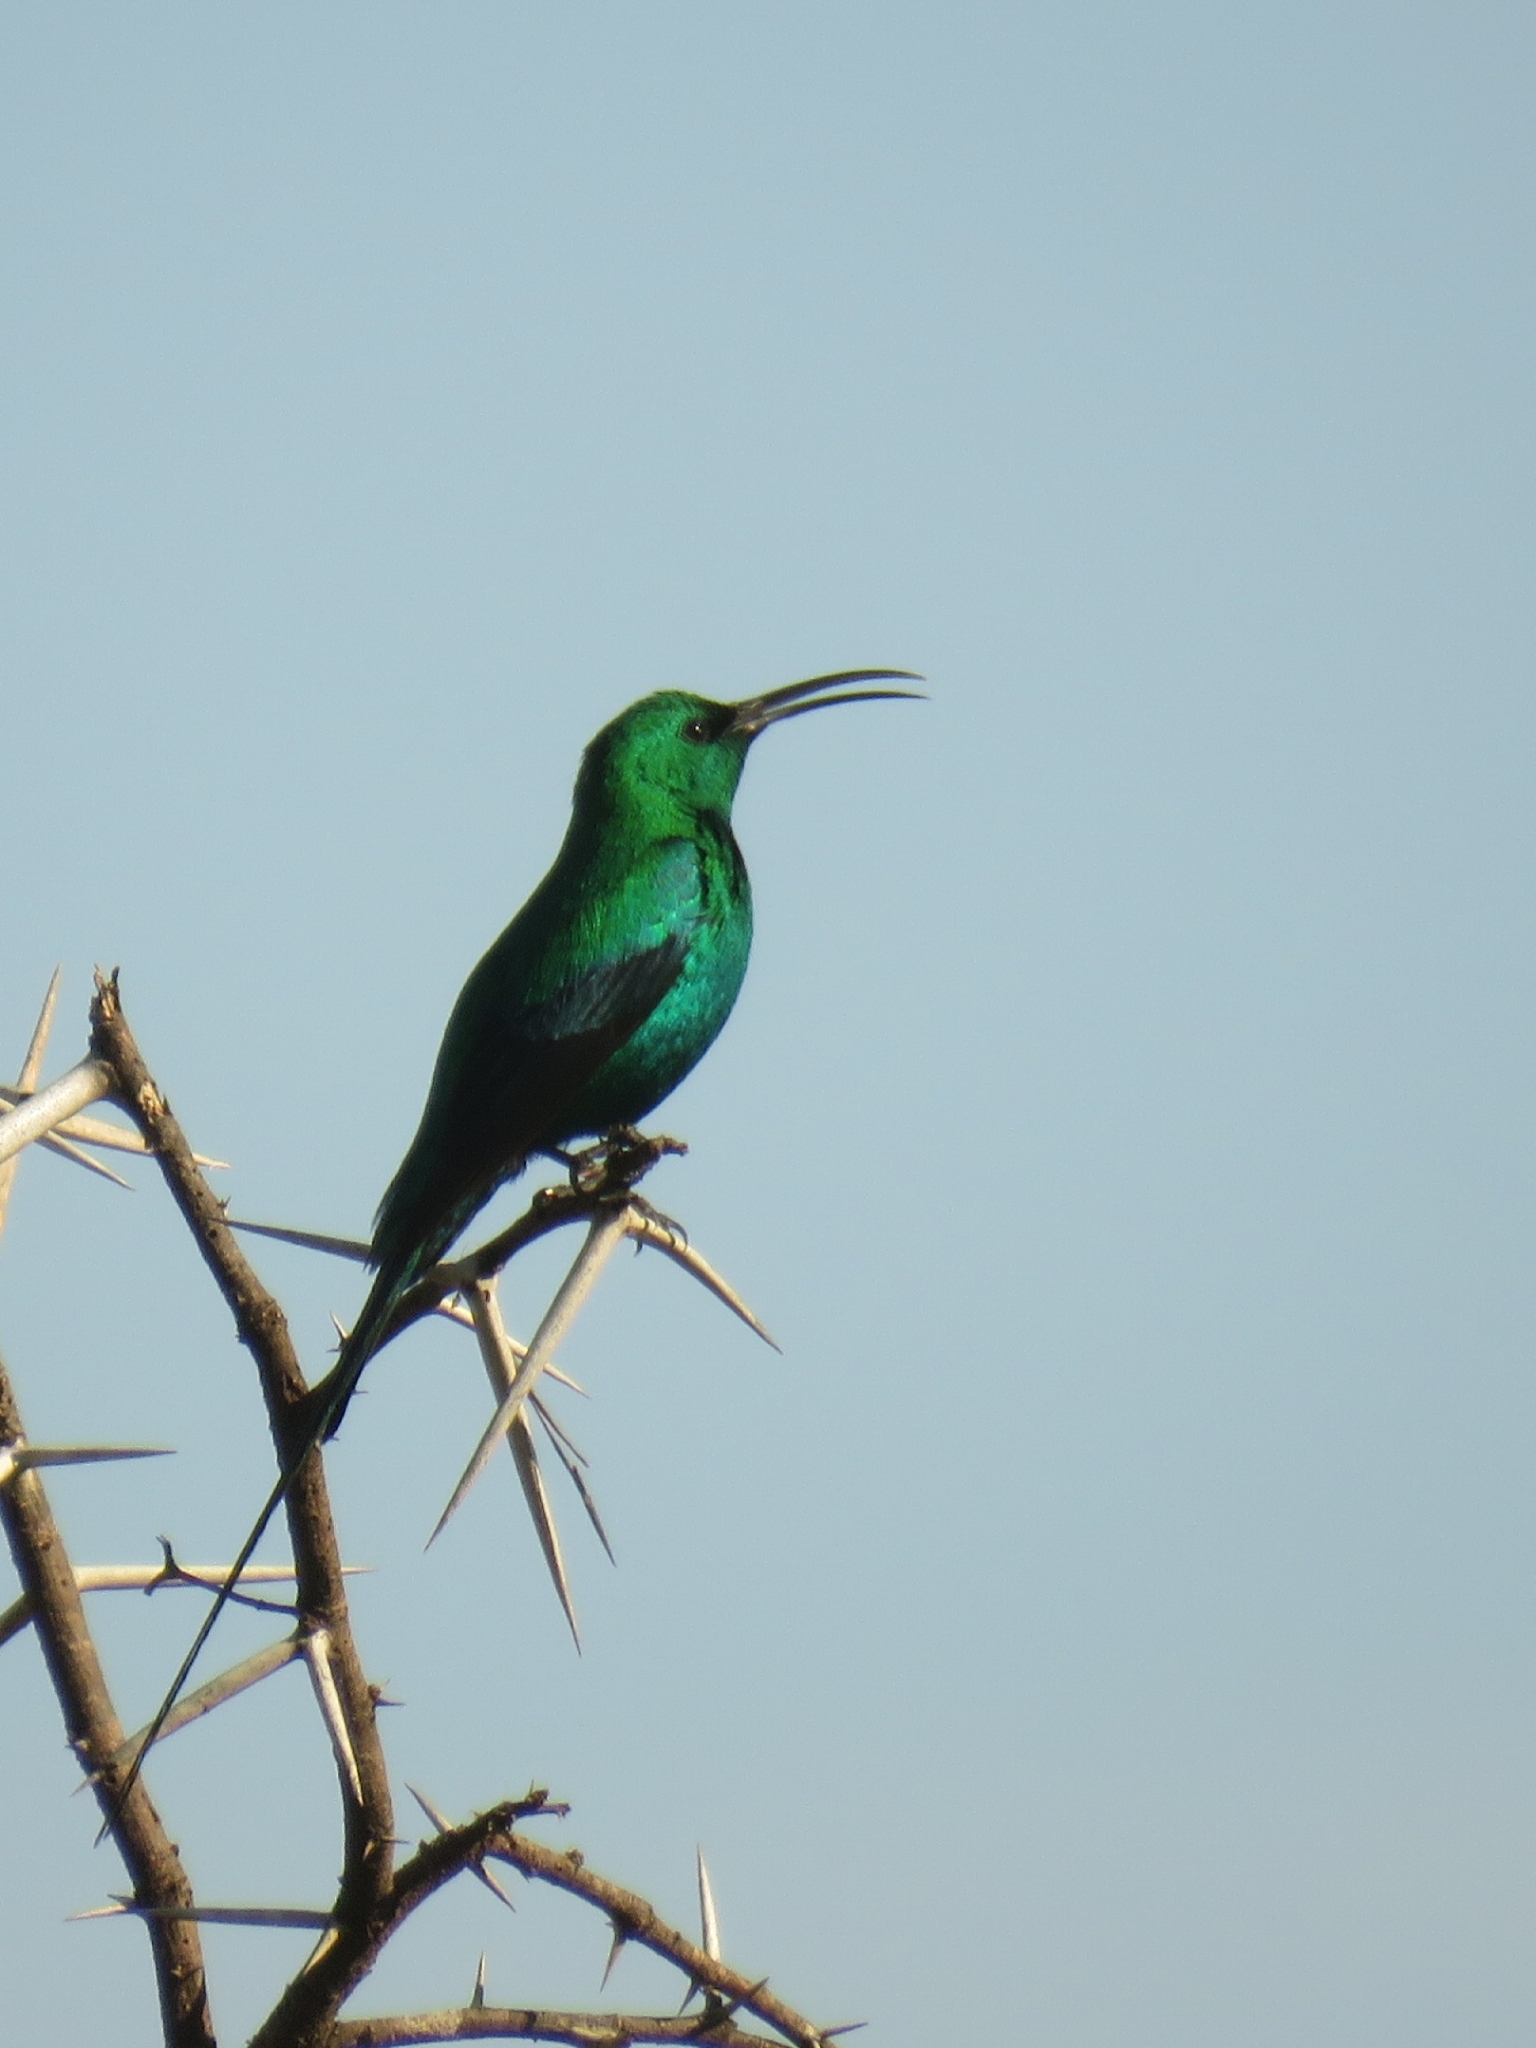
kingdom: Animalia
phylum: Chordata
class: Aves
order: Passeriformes
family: Nectariniidae
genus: Nectarinia
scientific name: Nectarinia famosa
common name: Malachite sunbird
